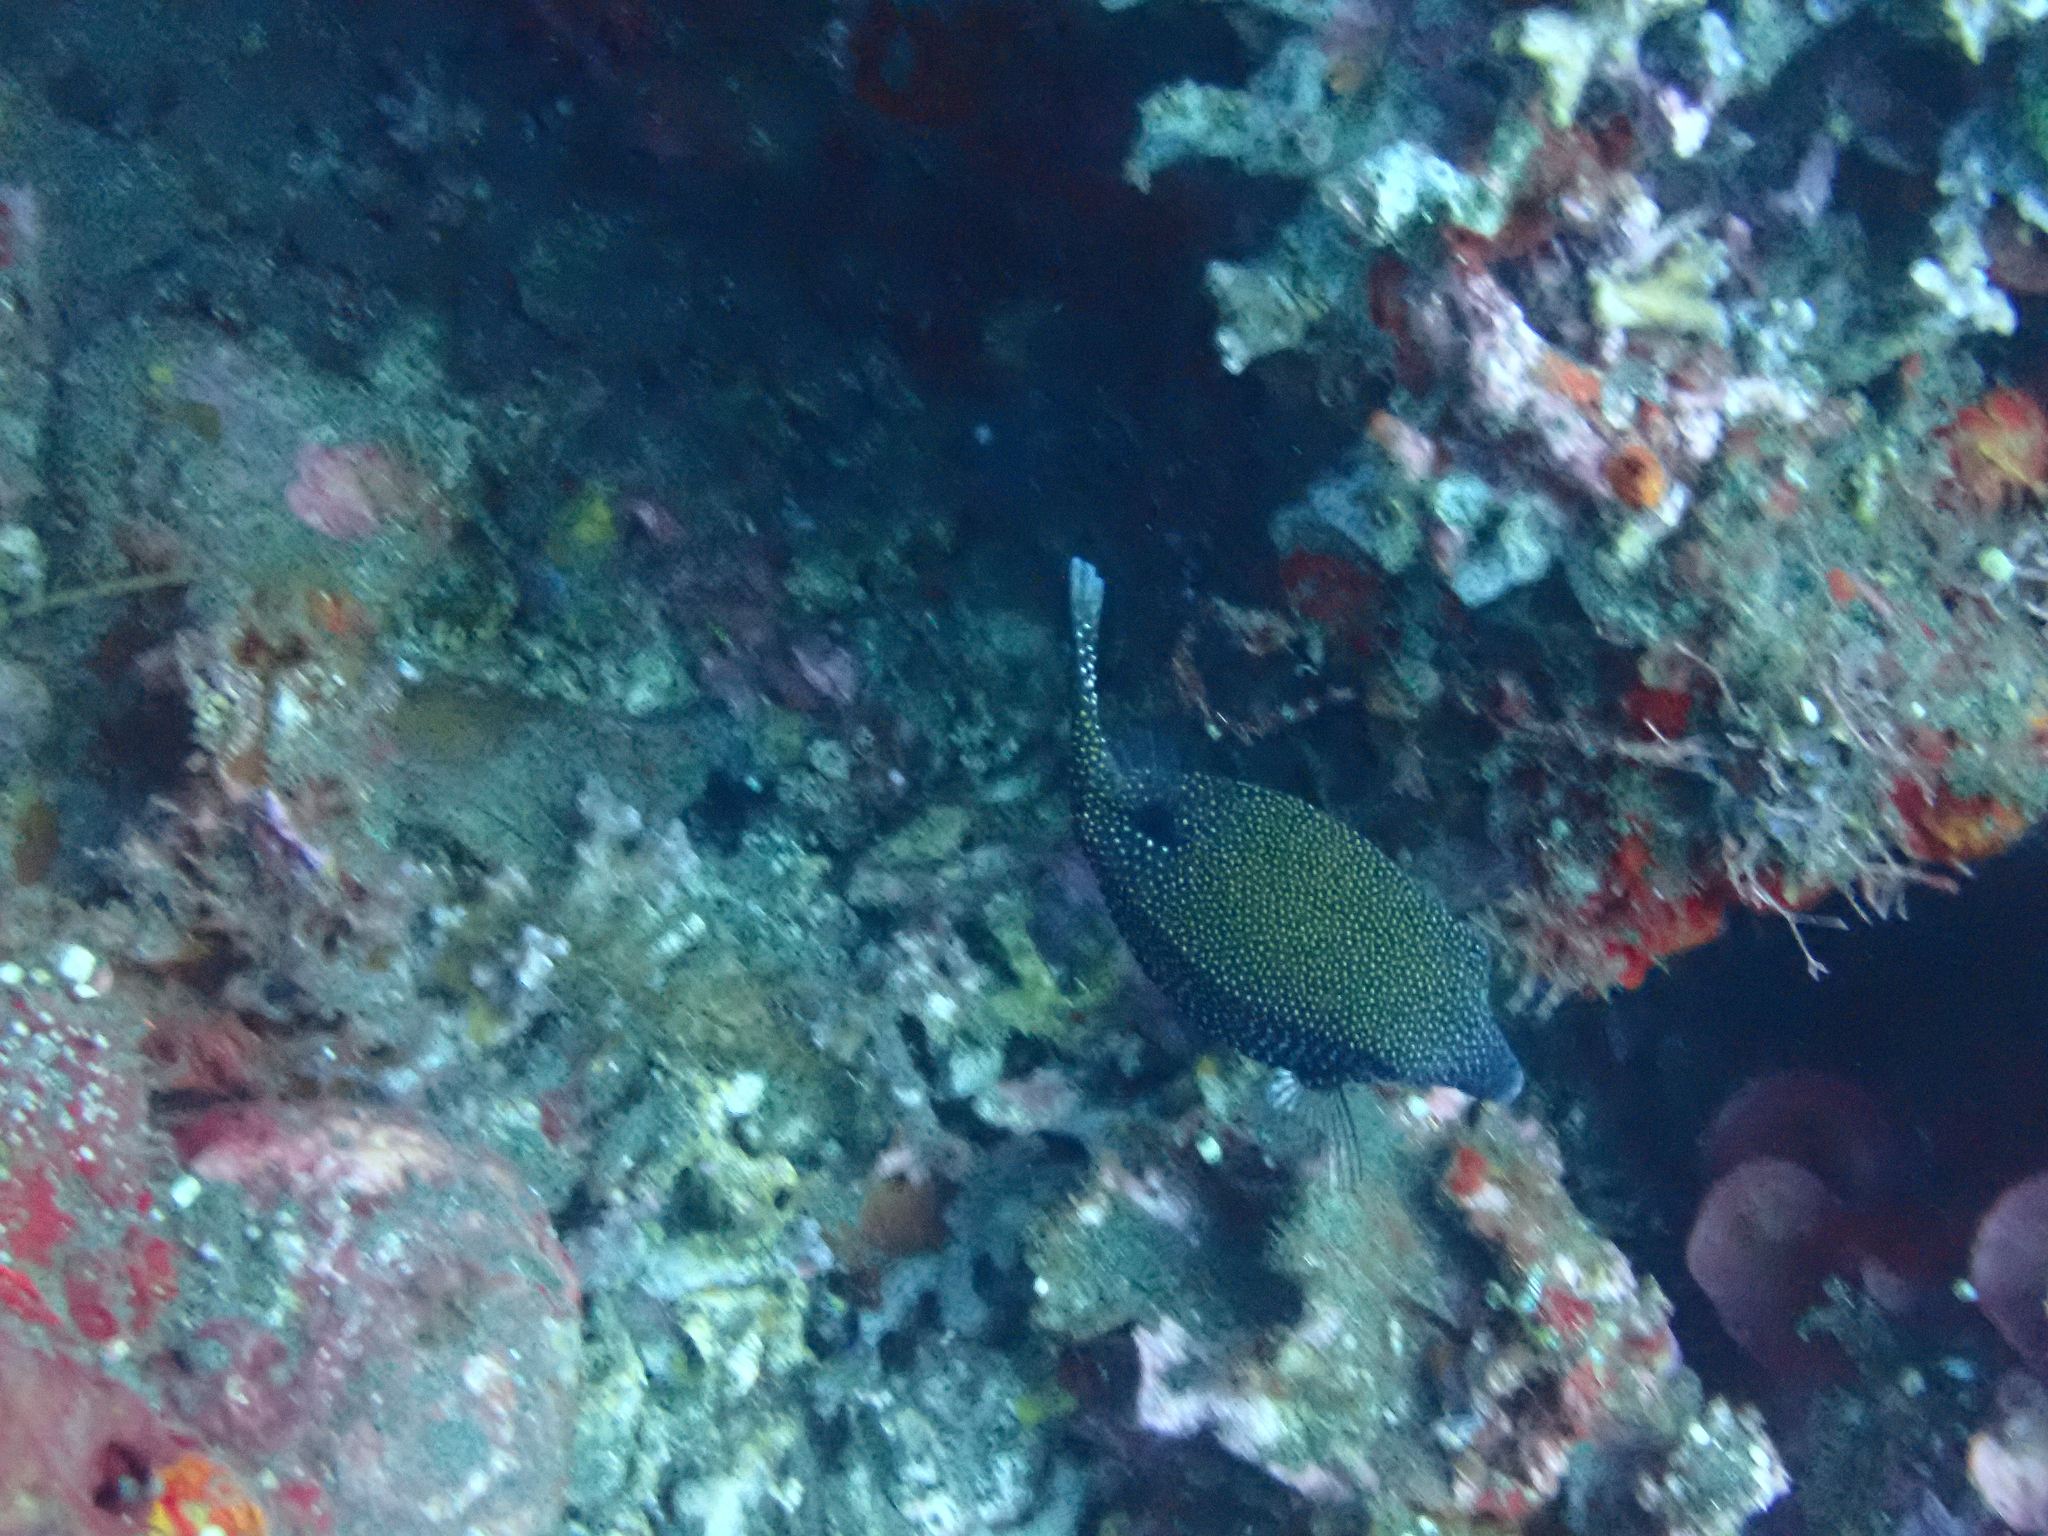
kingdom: Animalia
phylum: Chordata
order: Tetraodontiformes
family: Ostraciidae
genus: Ostracion
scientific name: Ostracion meleagris
